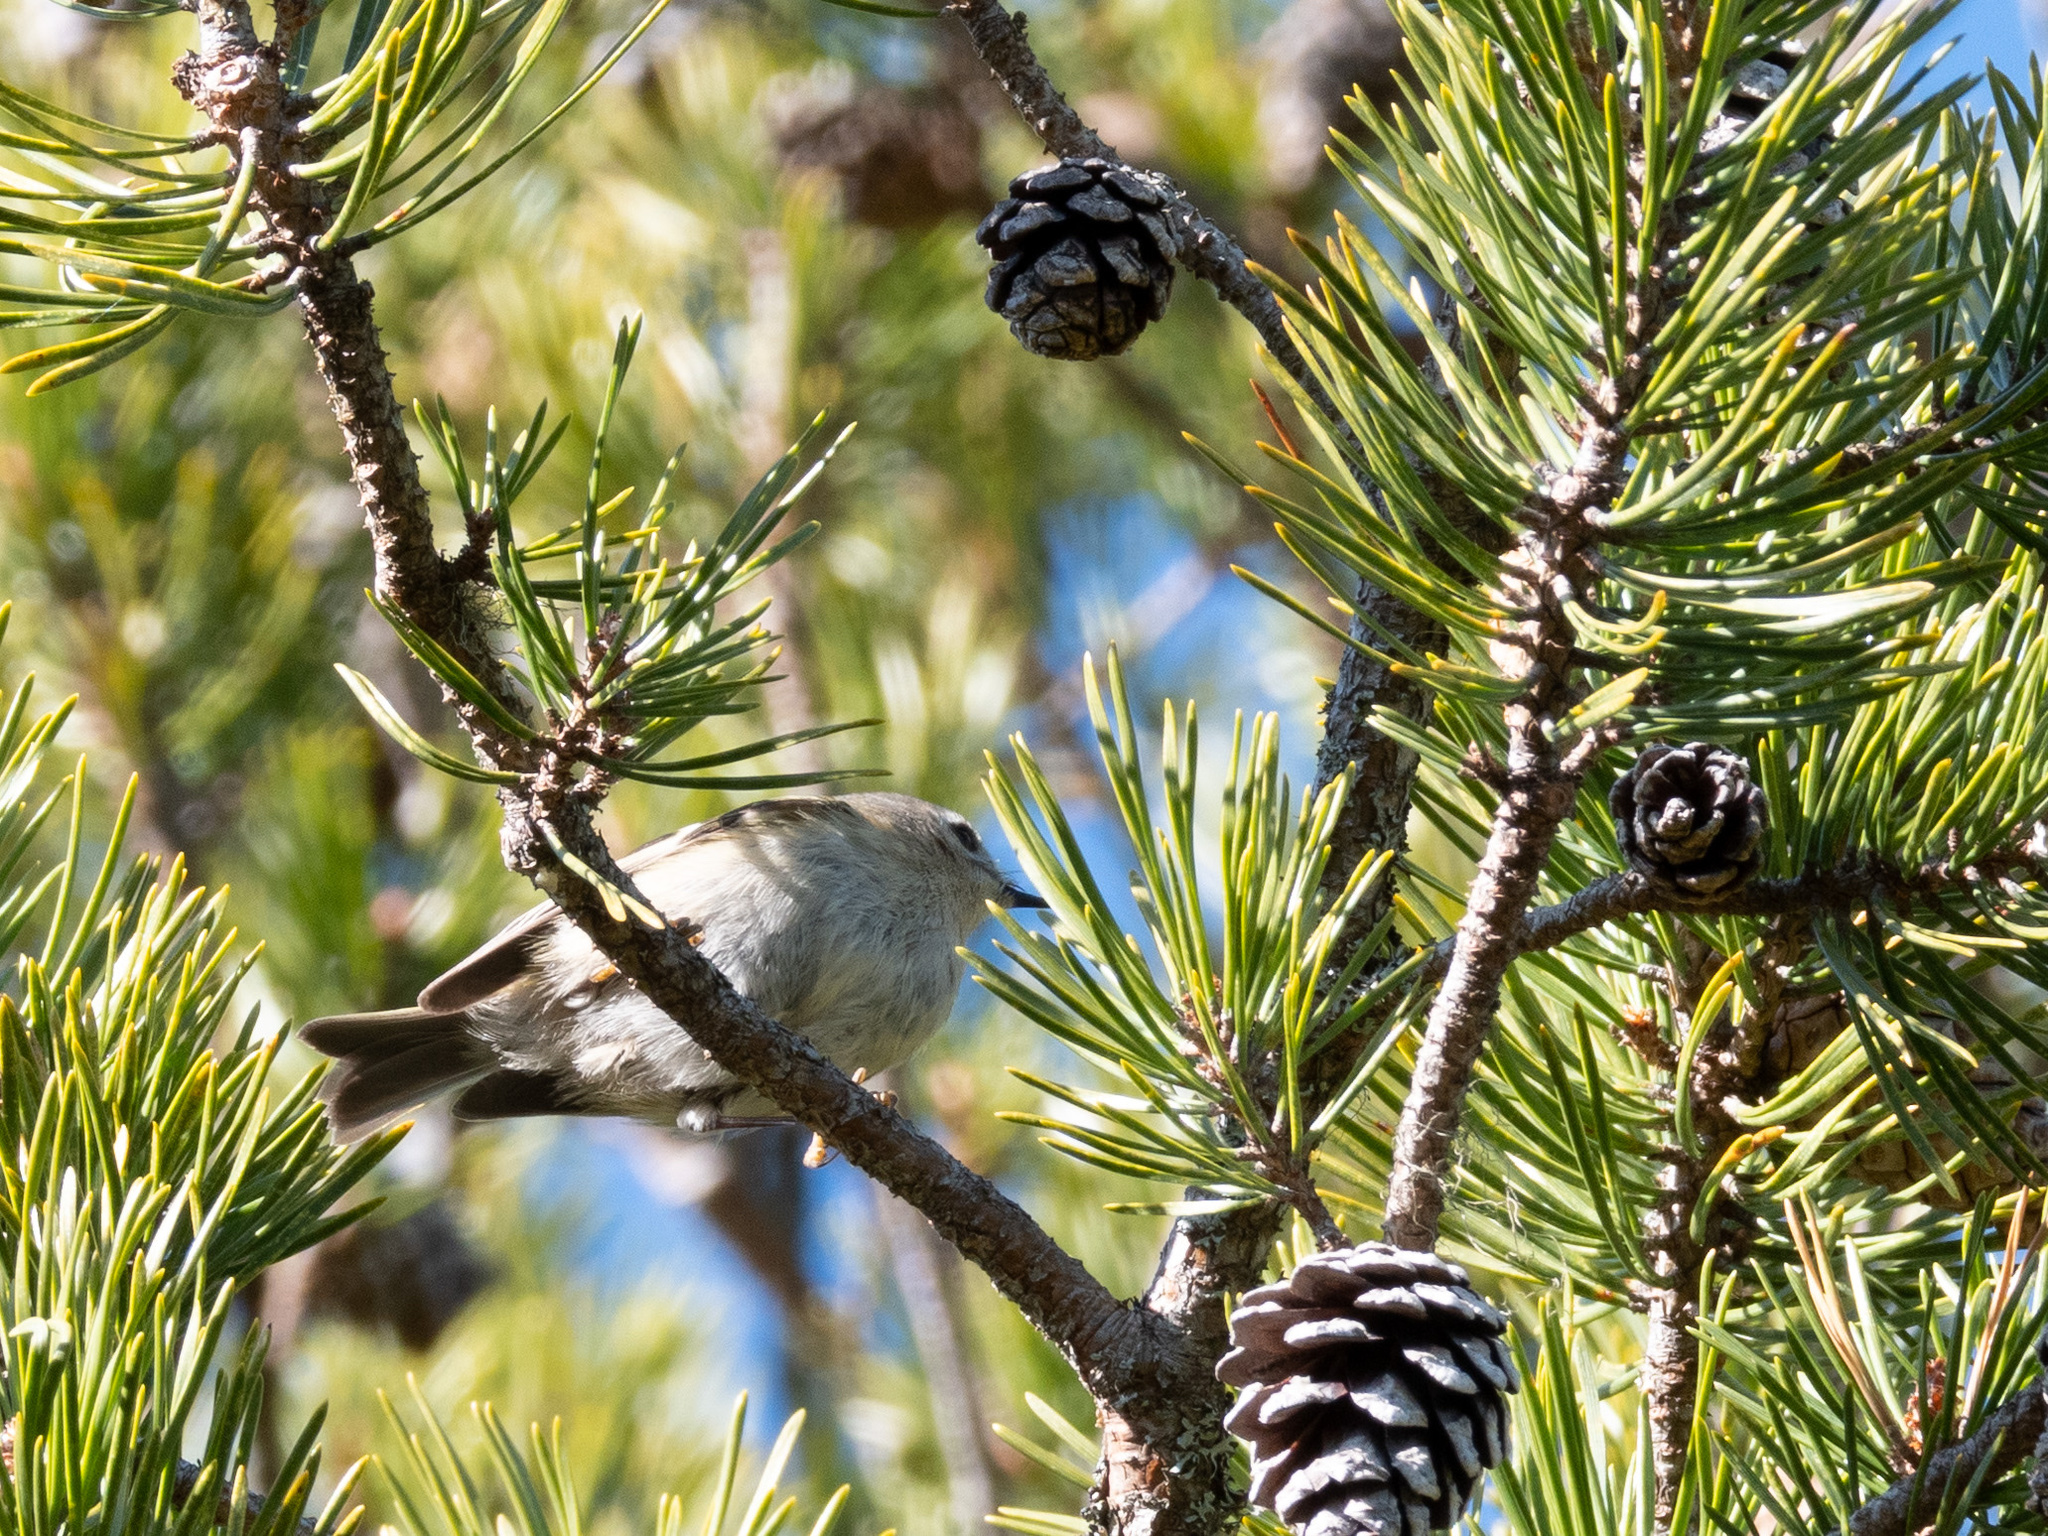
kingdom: Animalia
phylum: Chordata
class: Aves
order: Passeriformes
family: Regulidae
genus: Regulus
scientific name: Regulus regulus
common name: Goldcrest
